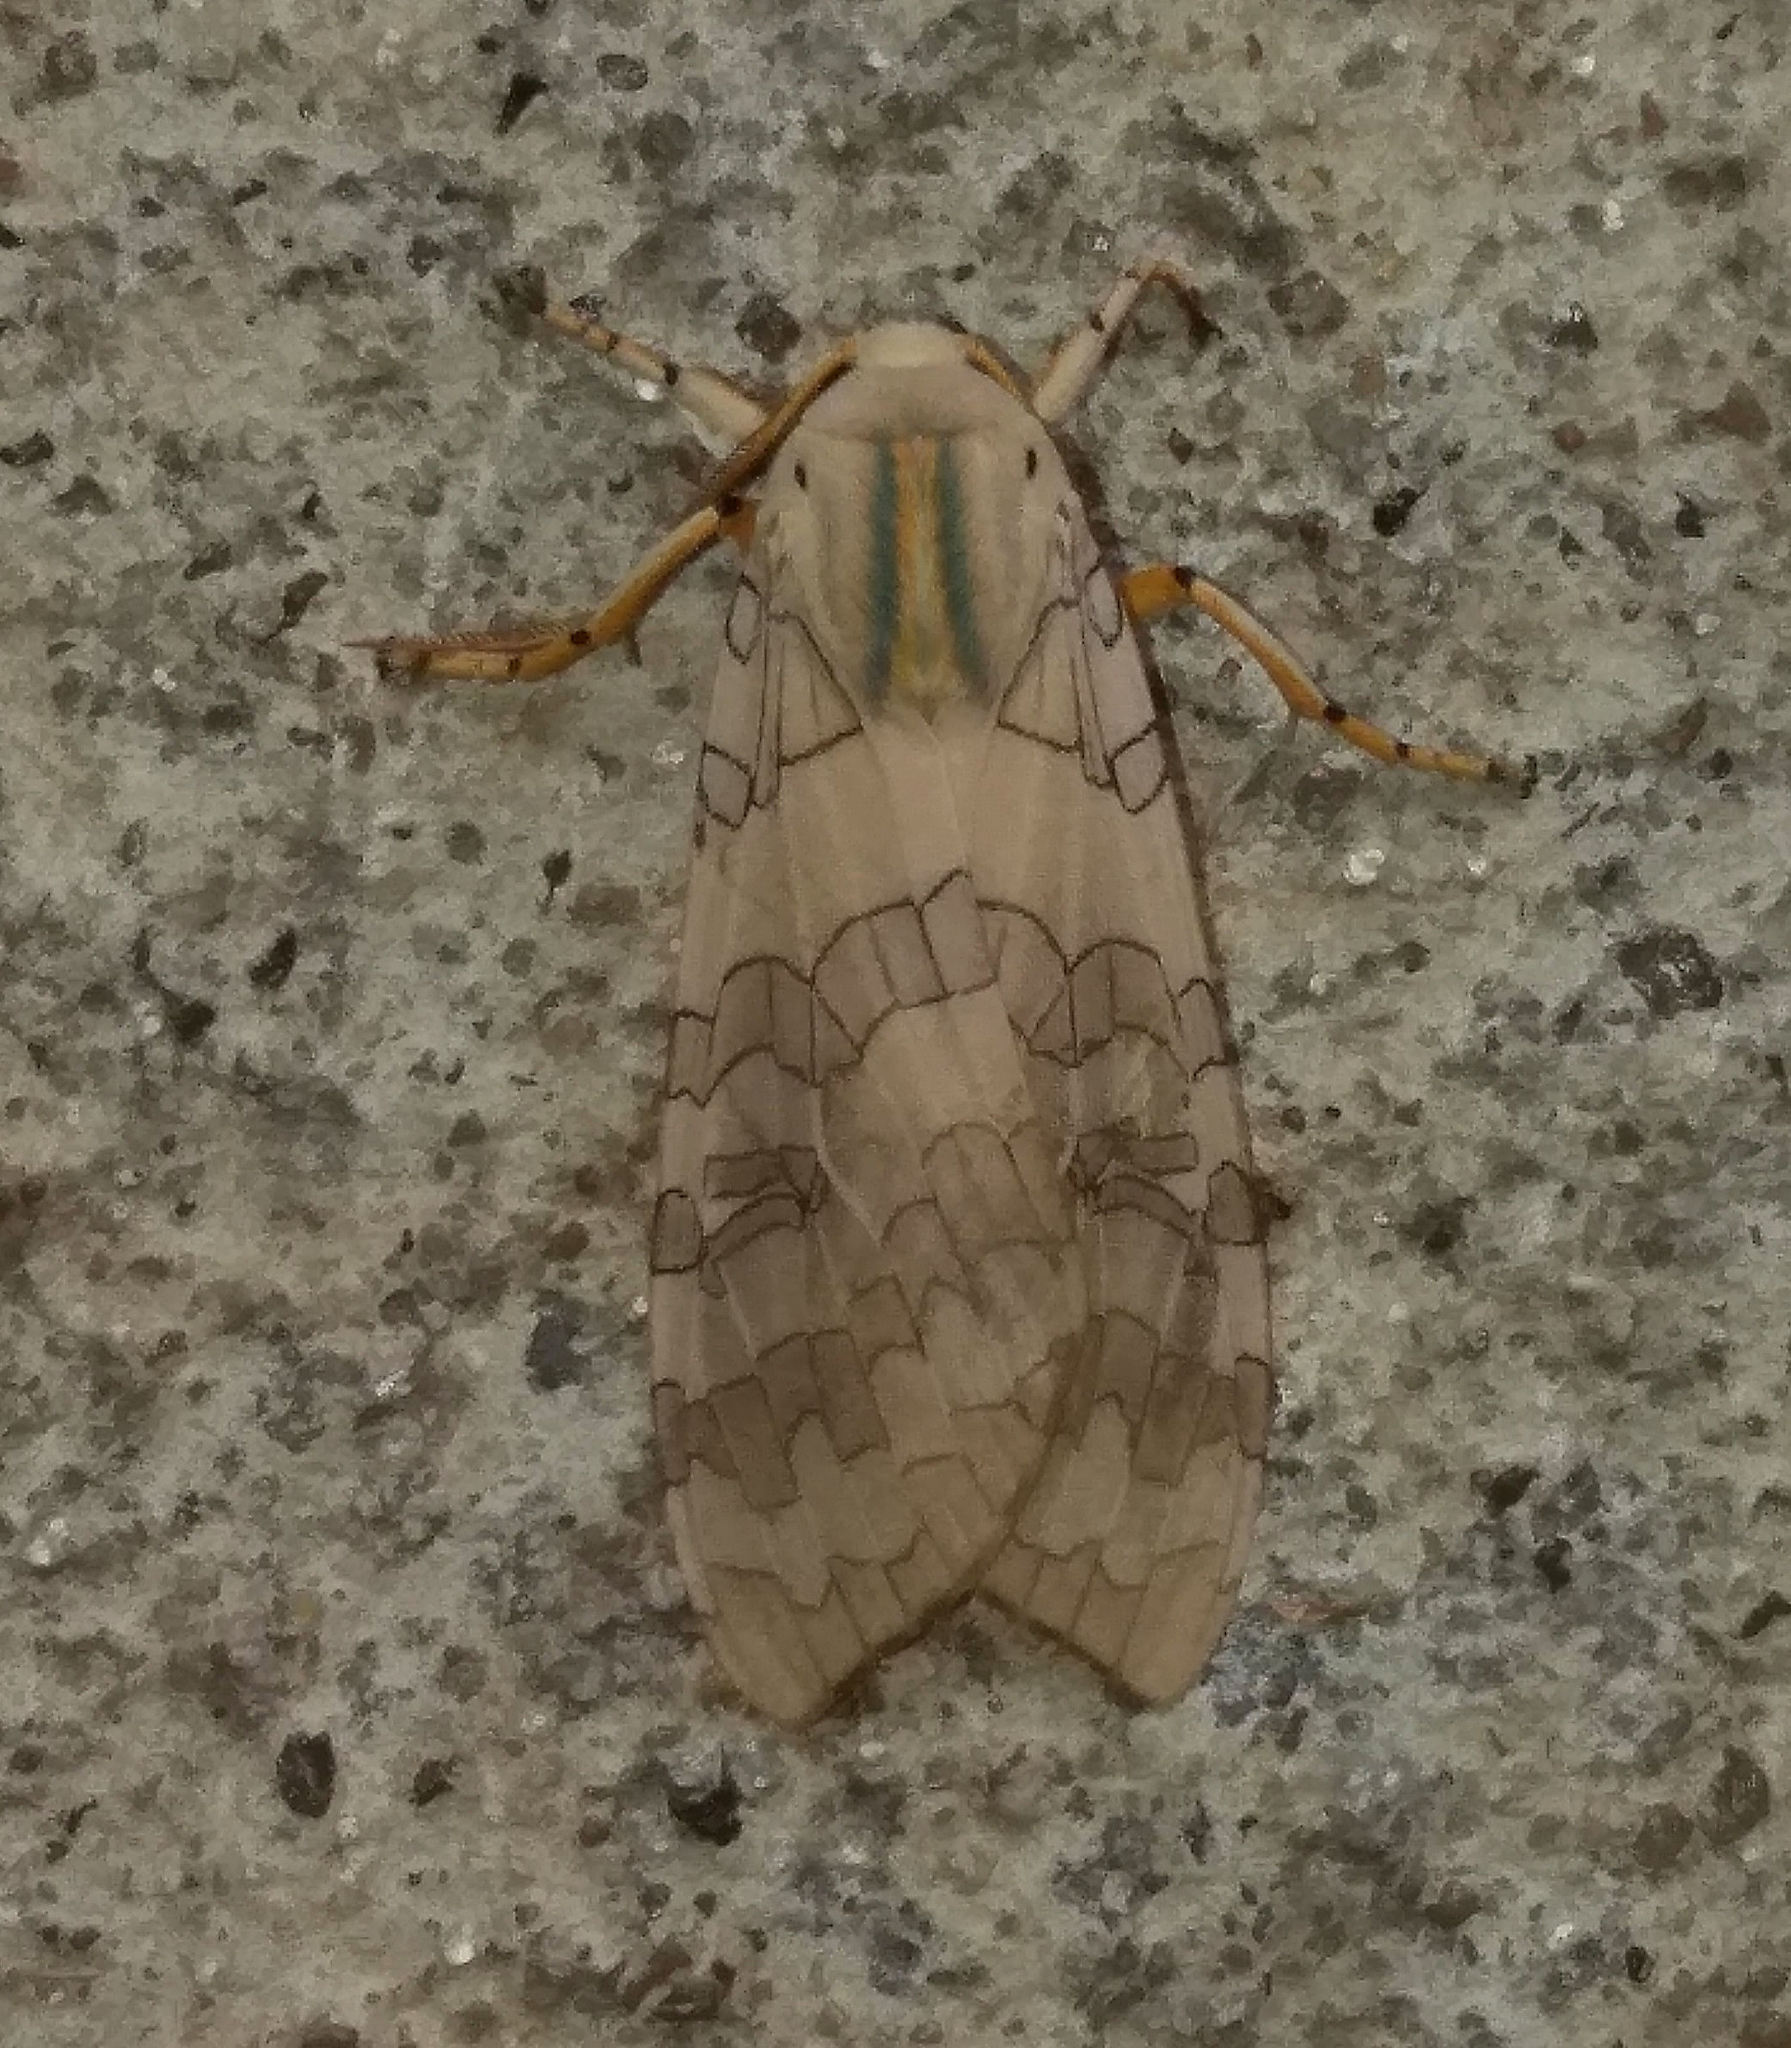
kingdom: Animalia
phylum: Arthropoda
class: Insecta
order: Lepidoptera
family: Erebidae
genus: Halysidota
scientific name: Halysidota
